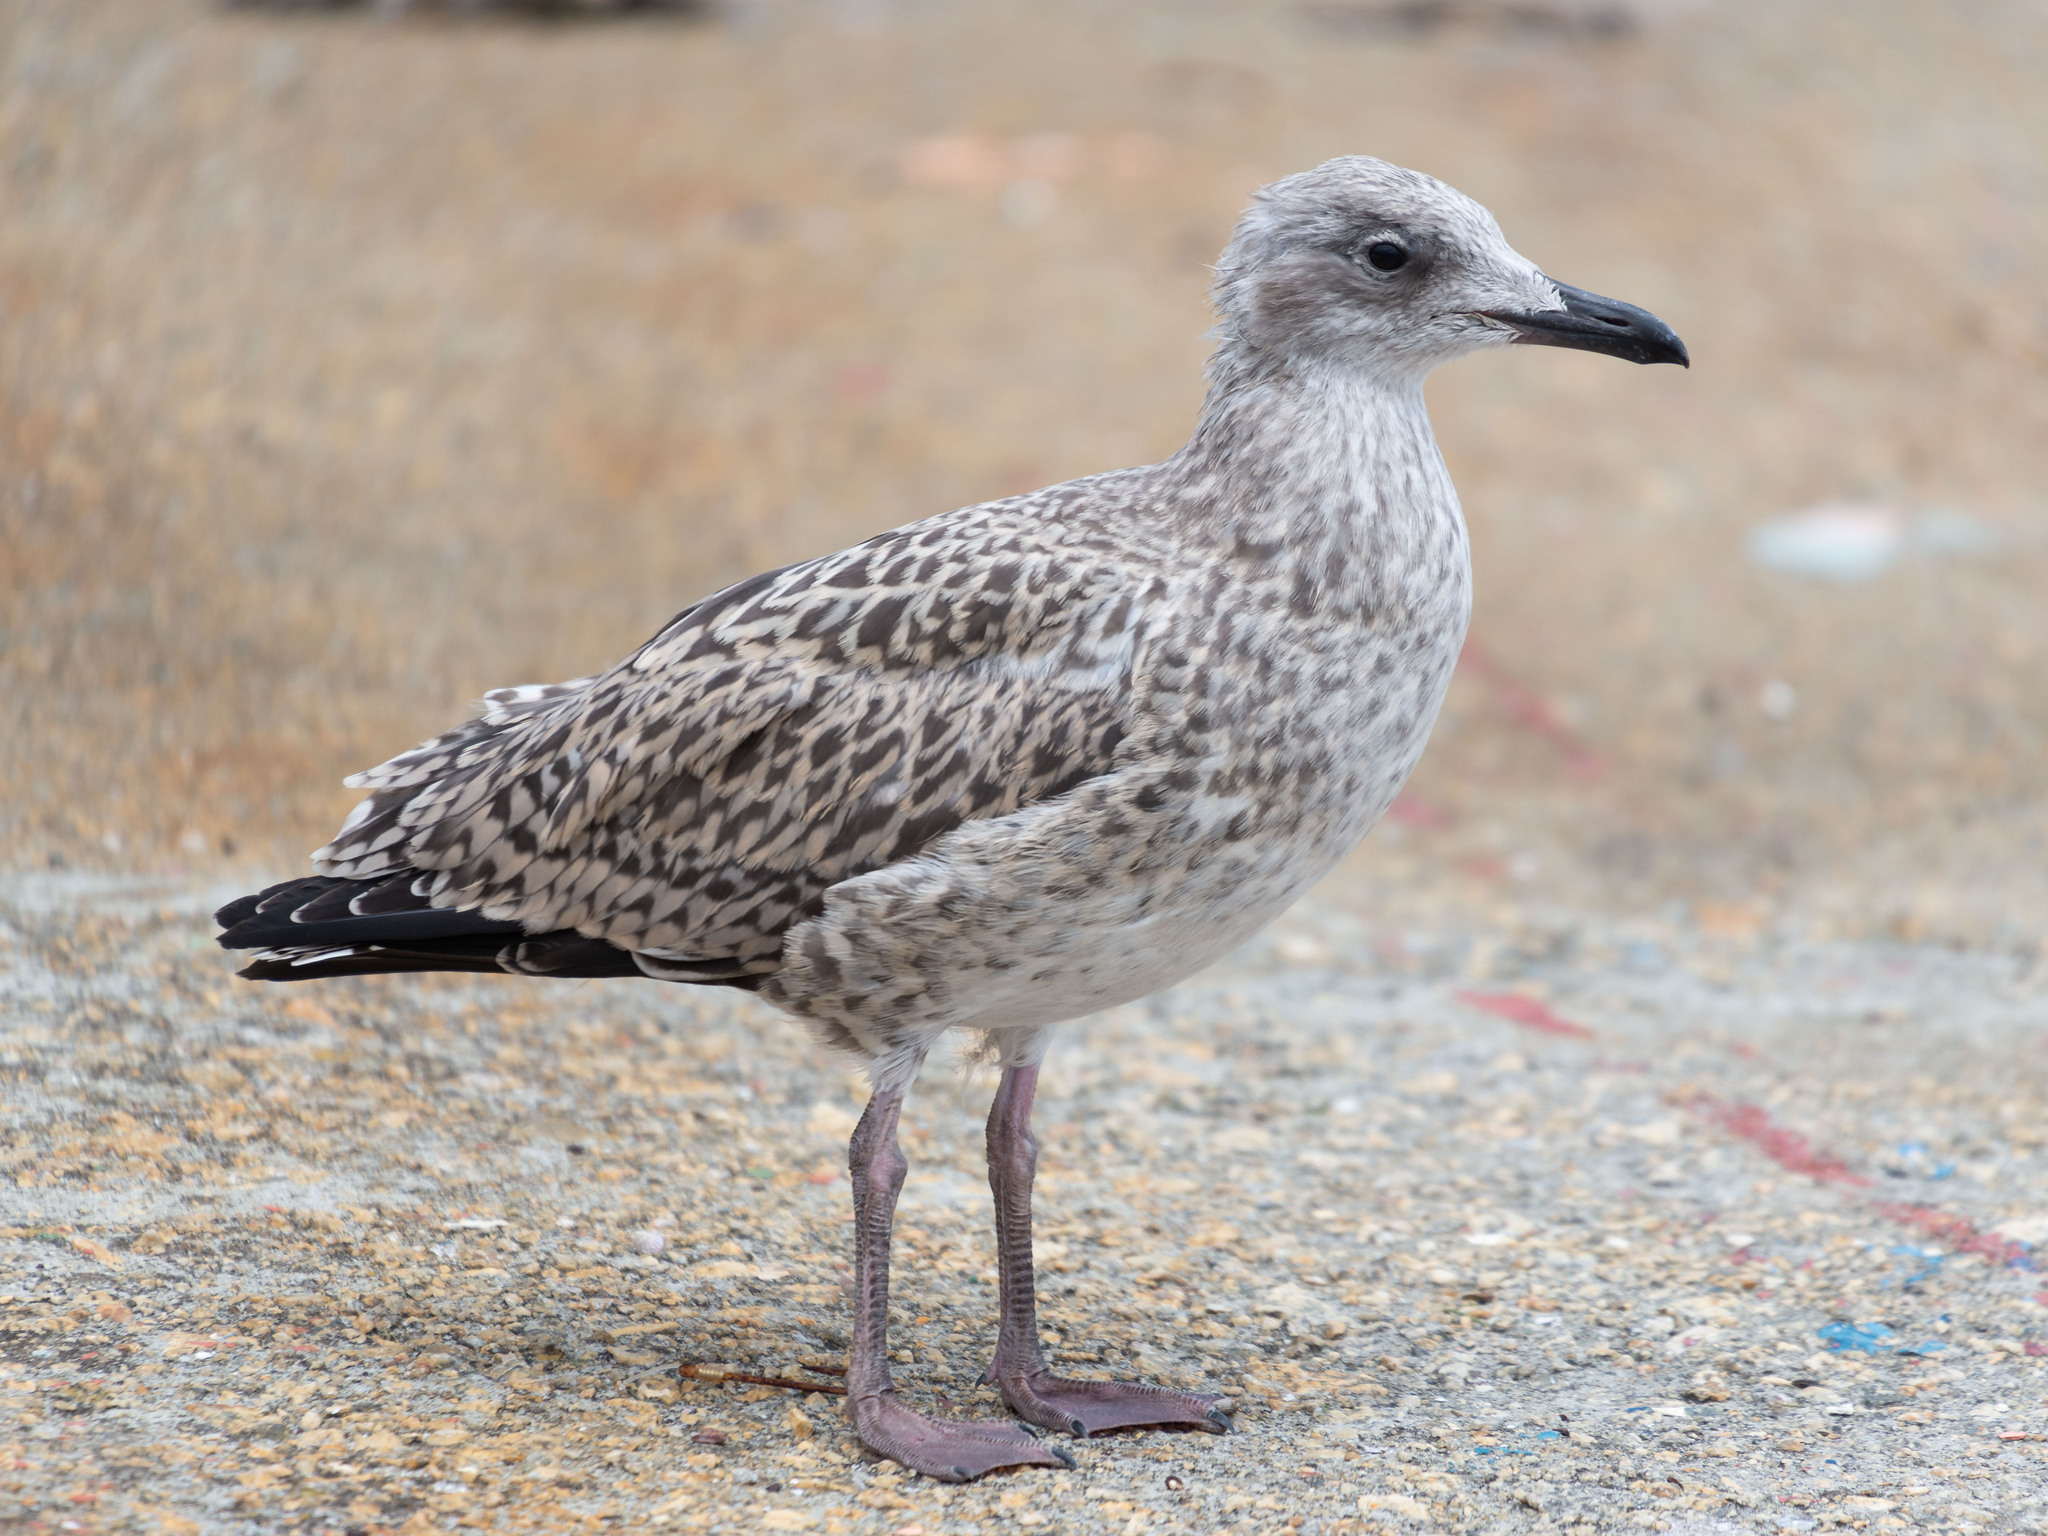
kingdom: Animalia
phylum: Chordata
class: Aves
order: Charadriiformes
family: Laridae
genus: Larus
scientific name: Larus michahellis
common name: Yellow-legged gull
